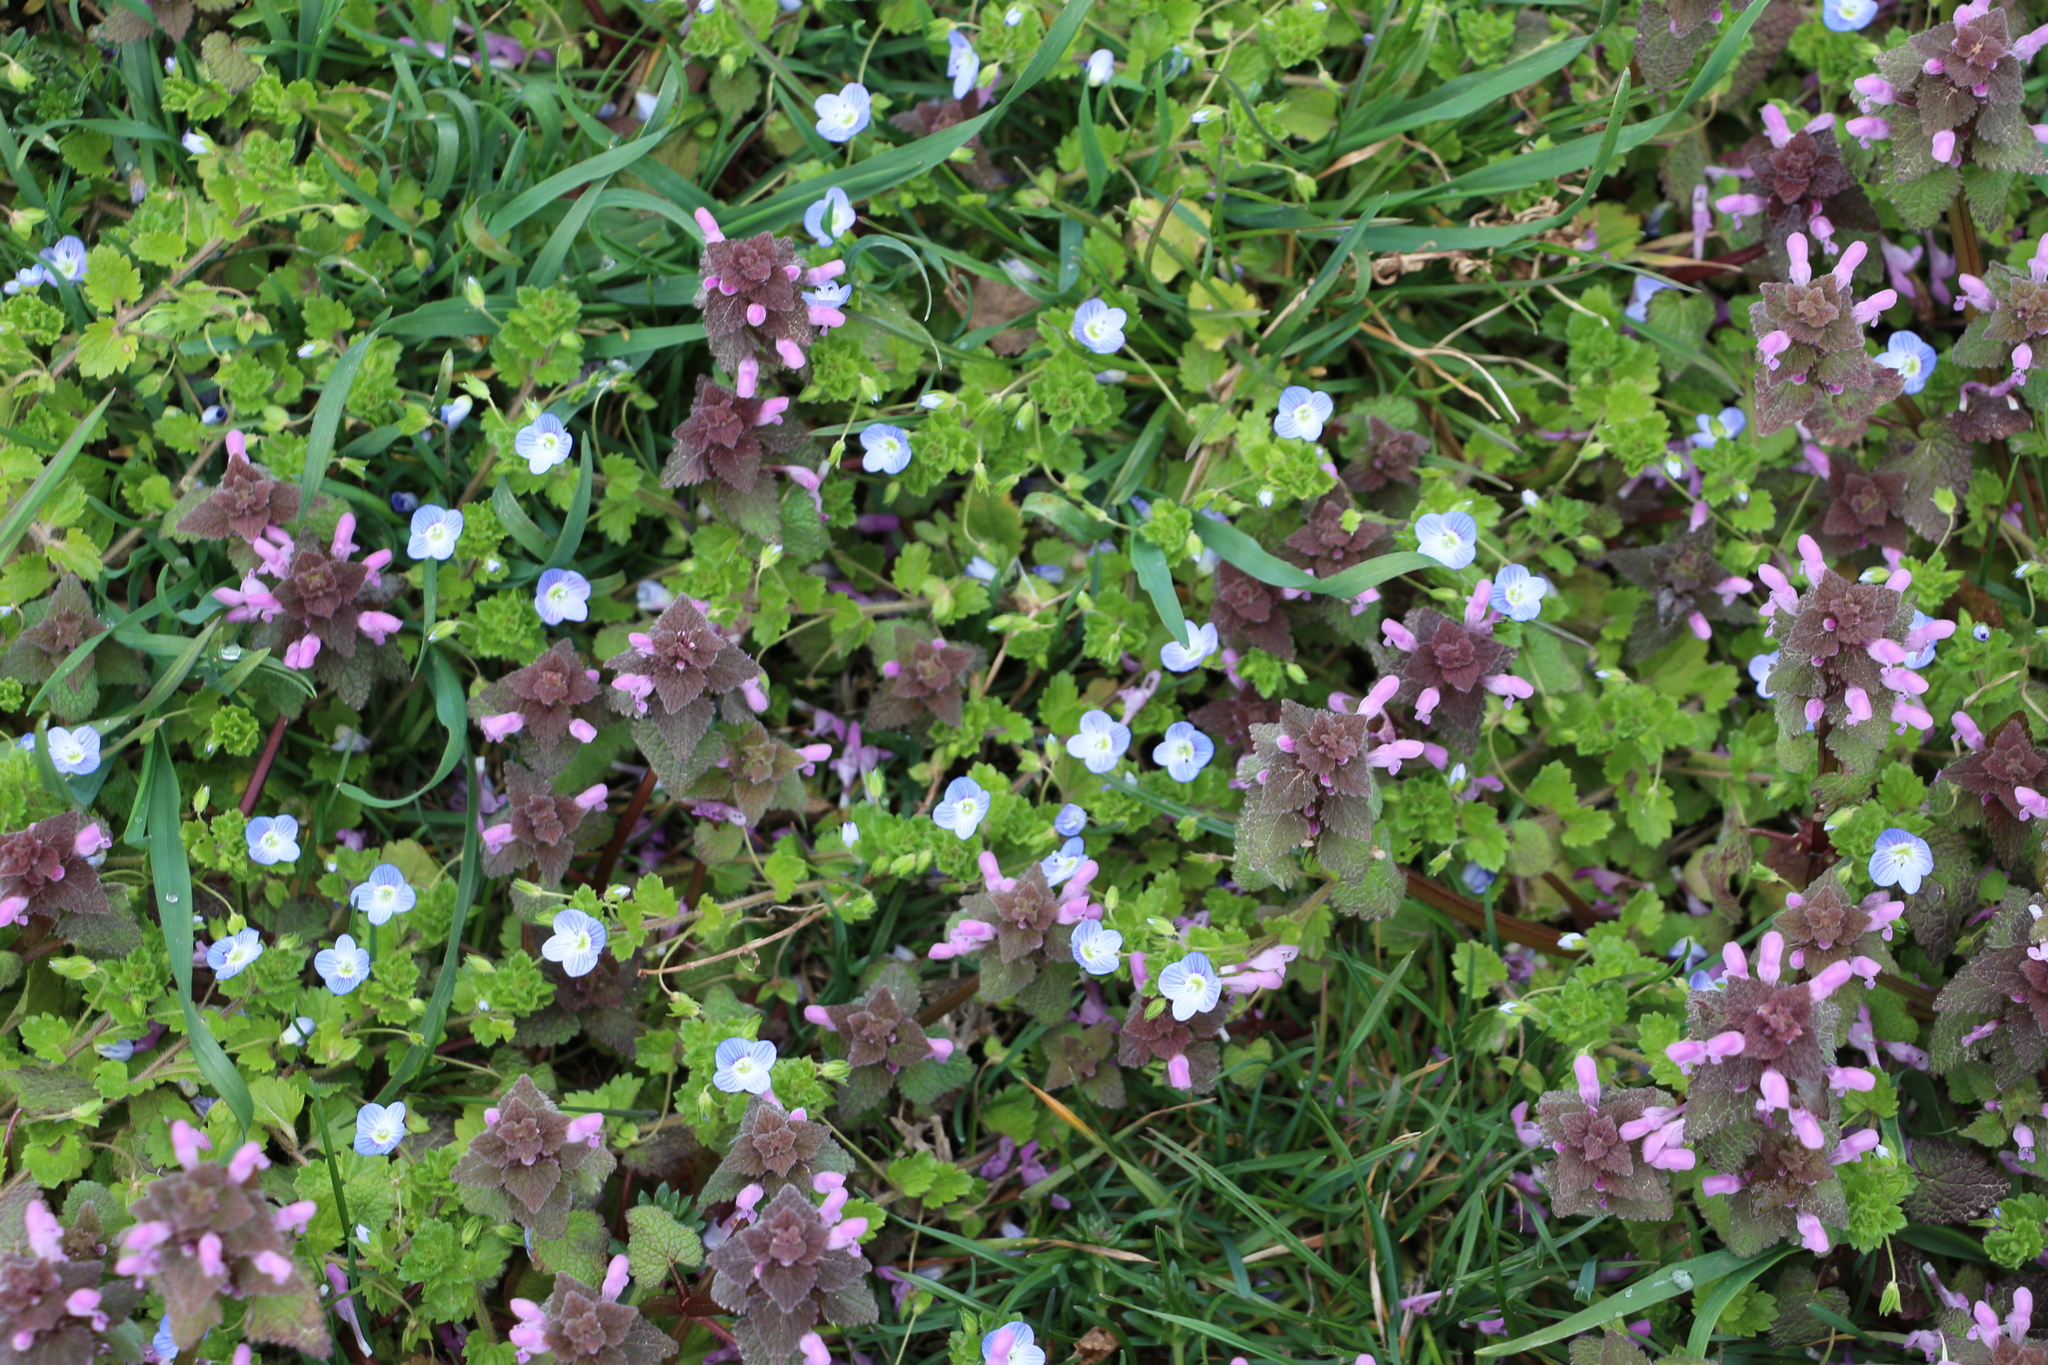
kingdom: Plantae
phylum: Tracheophyta
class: Magnoliopsida
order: Lamiales
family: Plantaginaceae
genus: Veronica
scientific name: Veronica persica
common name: Common field-speedwell
